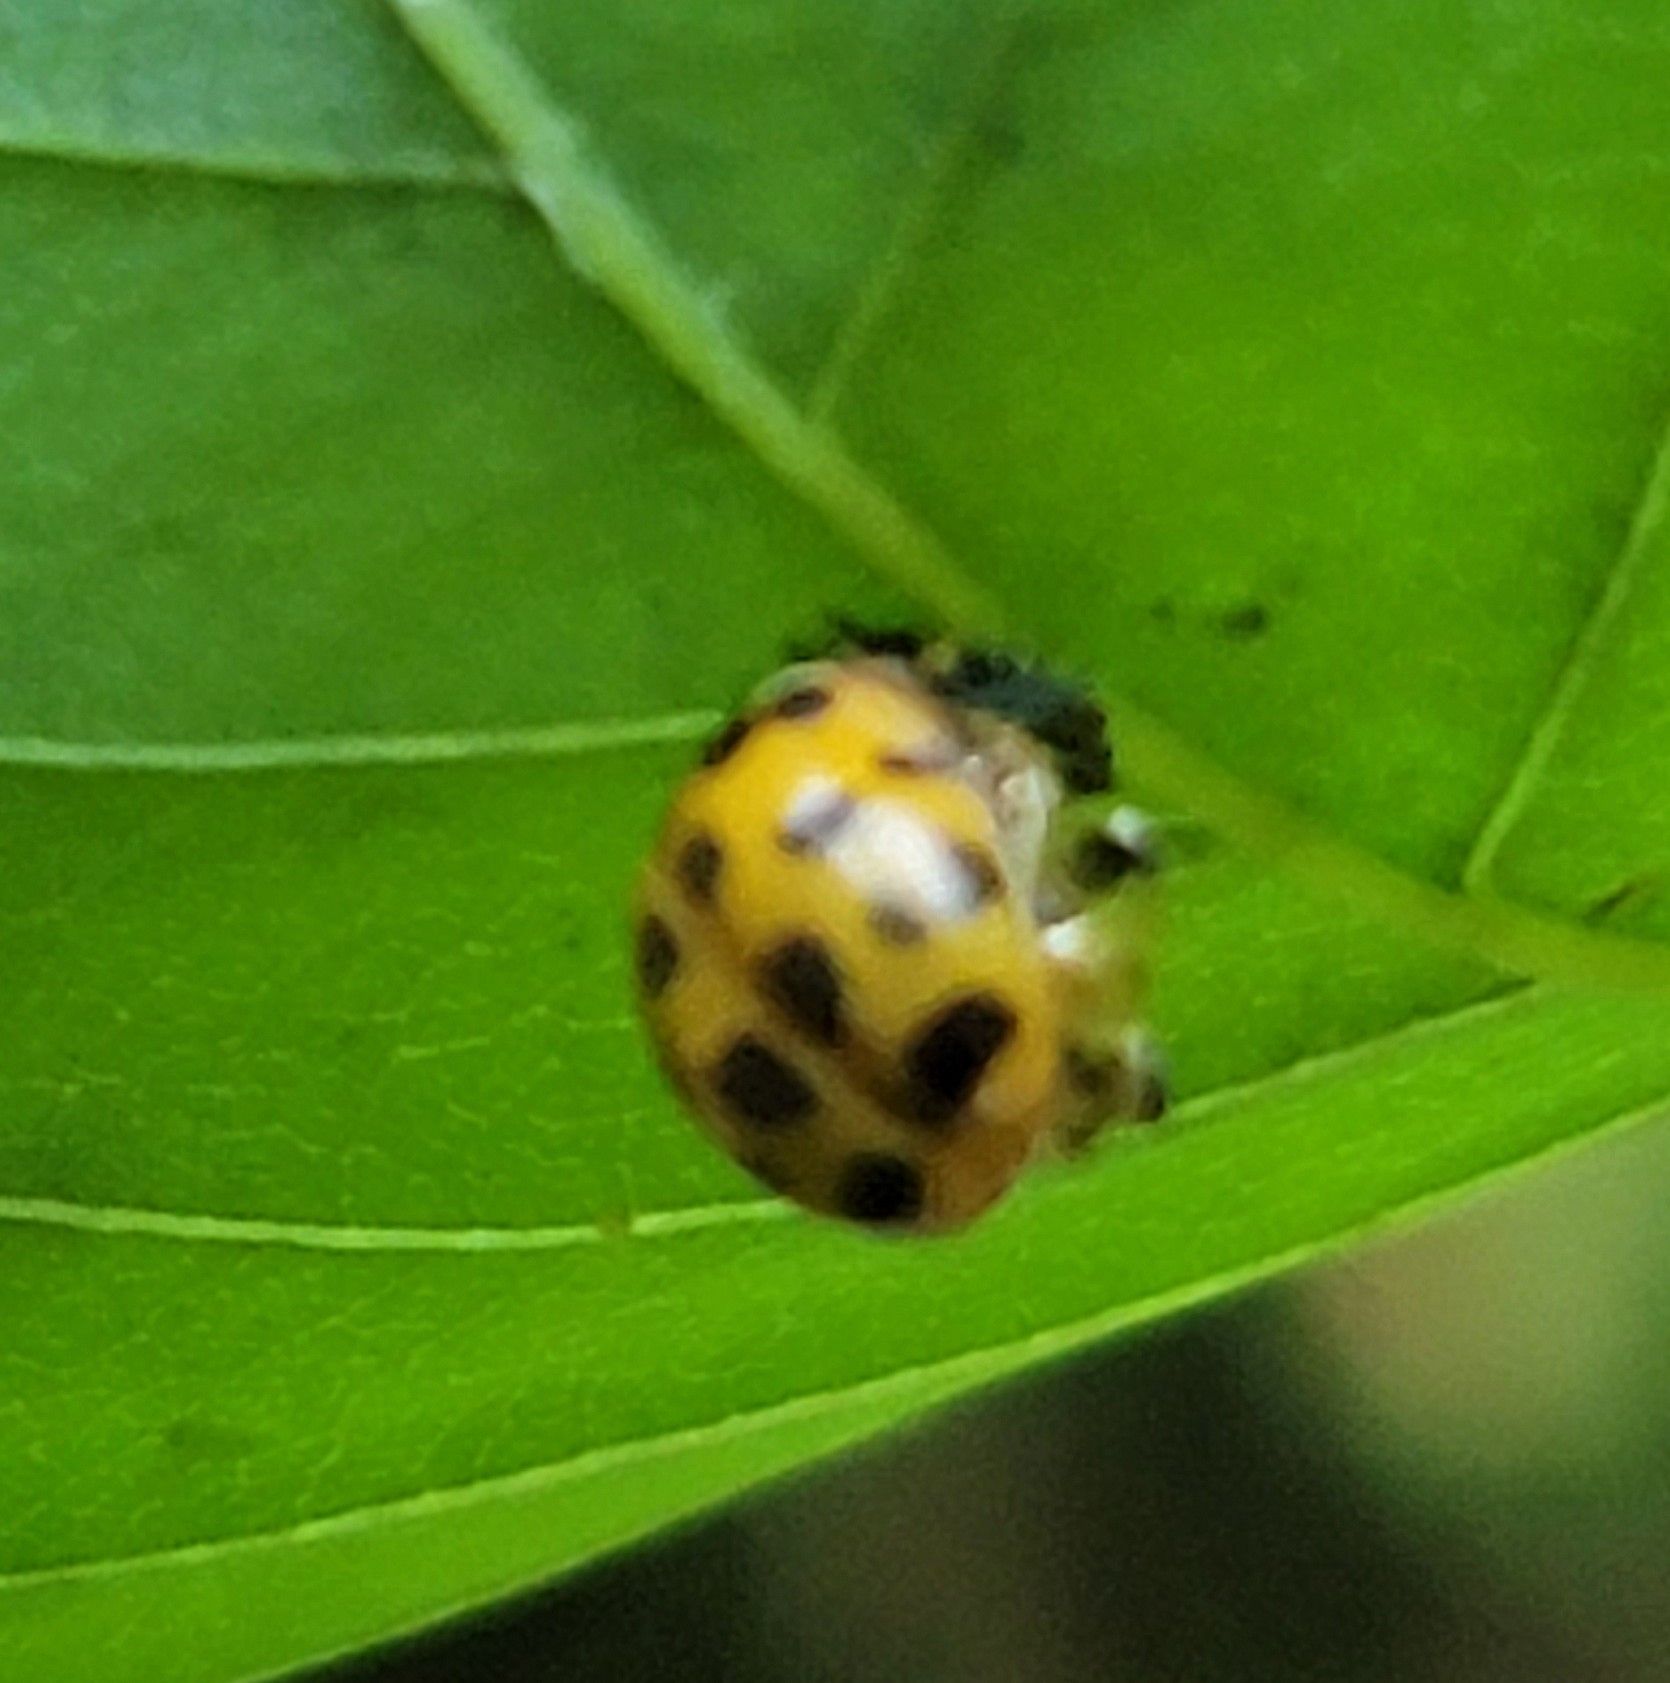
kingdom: Animalia
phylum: Arthropoda
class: Insecta
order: Coleoptera
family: Coccinellidae
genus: Harmonia
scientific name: Harmonia axyridis
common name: Harlequin ladybird
